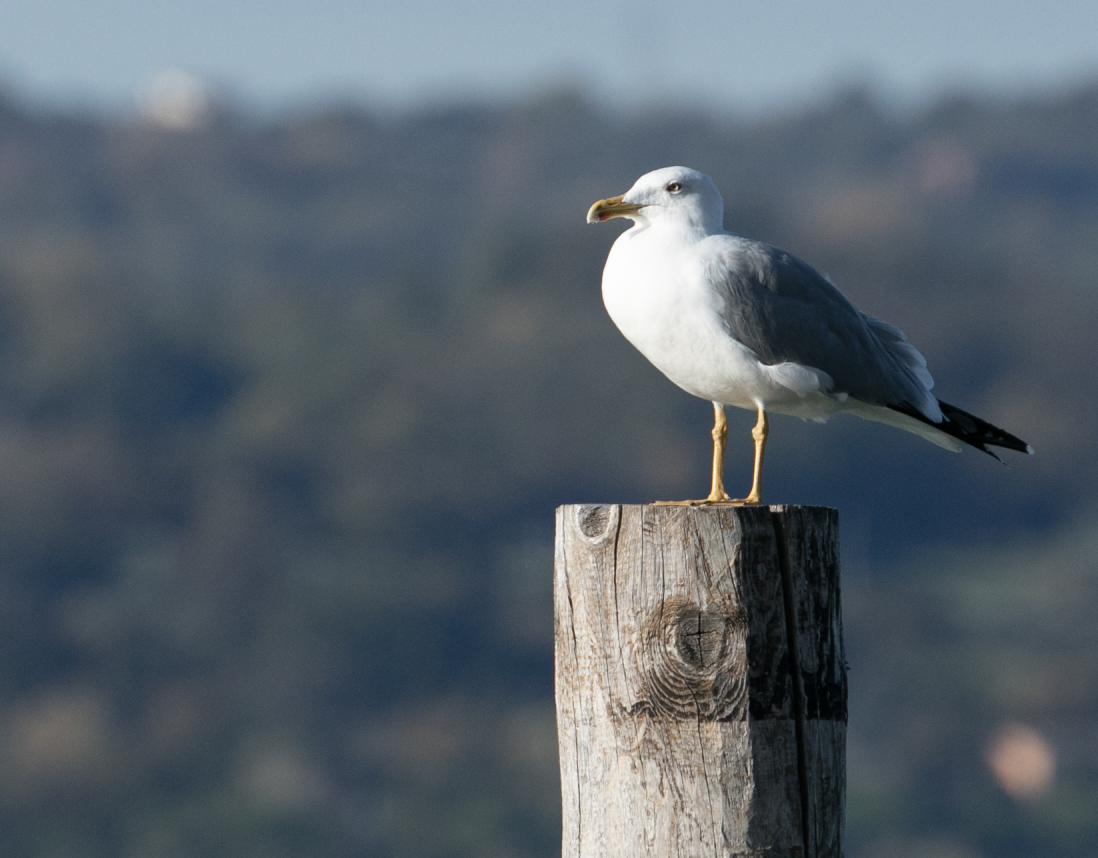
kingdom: Animalia
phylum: Chordata
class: Aves
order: Charadriiformes
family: Laridae
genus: Larus
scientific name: Larus michahellis
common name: Yellow-legged gull
